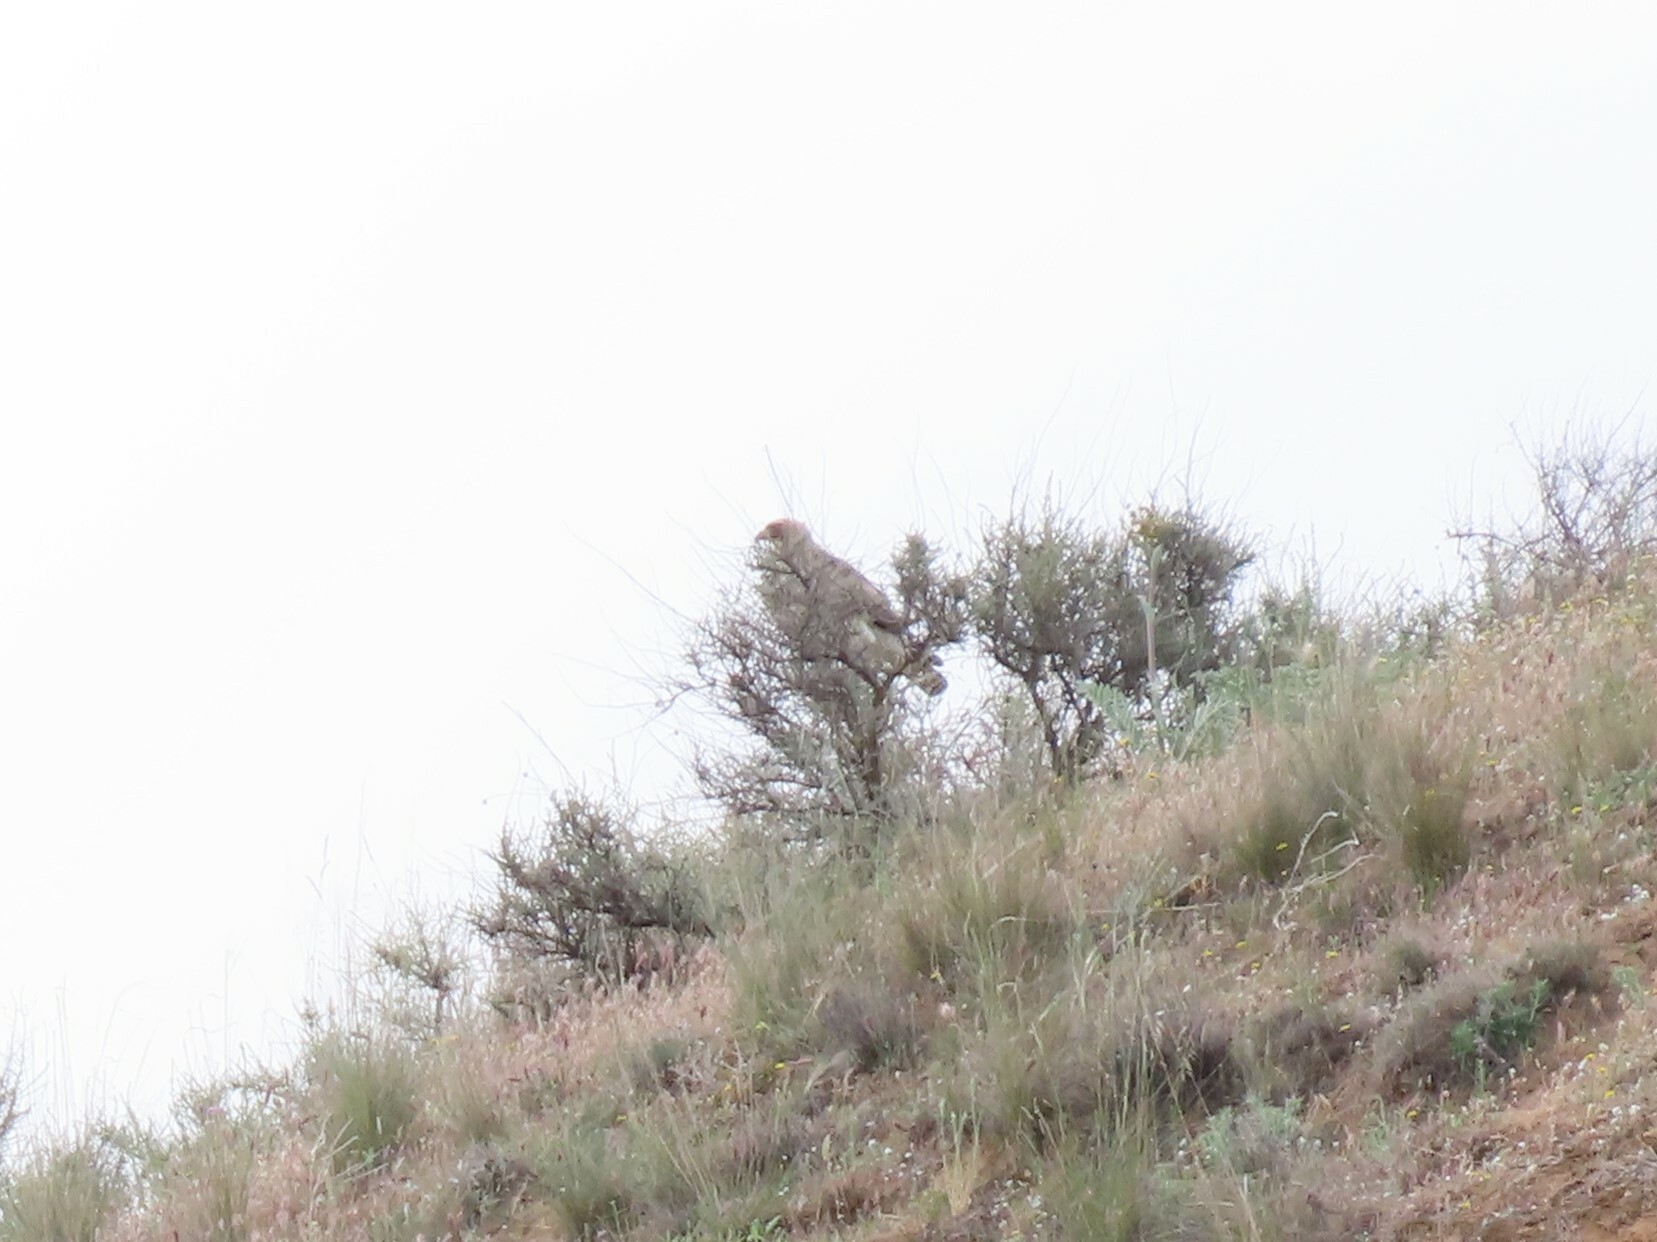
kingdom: Animalia
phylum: Chordata
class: Aves
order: Accipitriformes
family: Accipitridae
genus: Hieraaetus
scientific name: Hieraaetus pennatus
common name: Booted eagle
